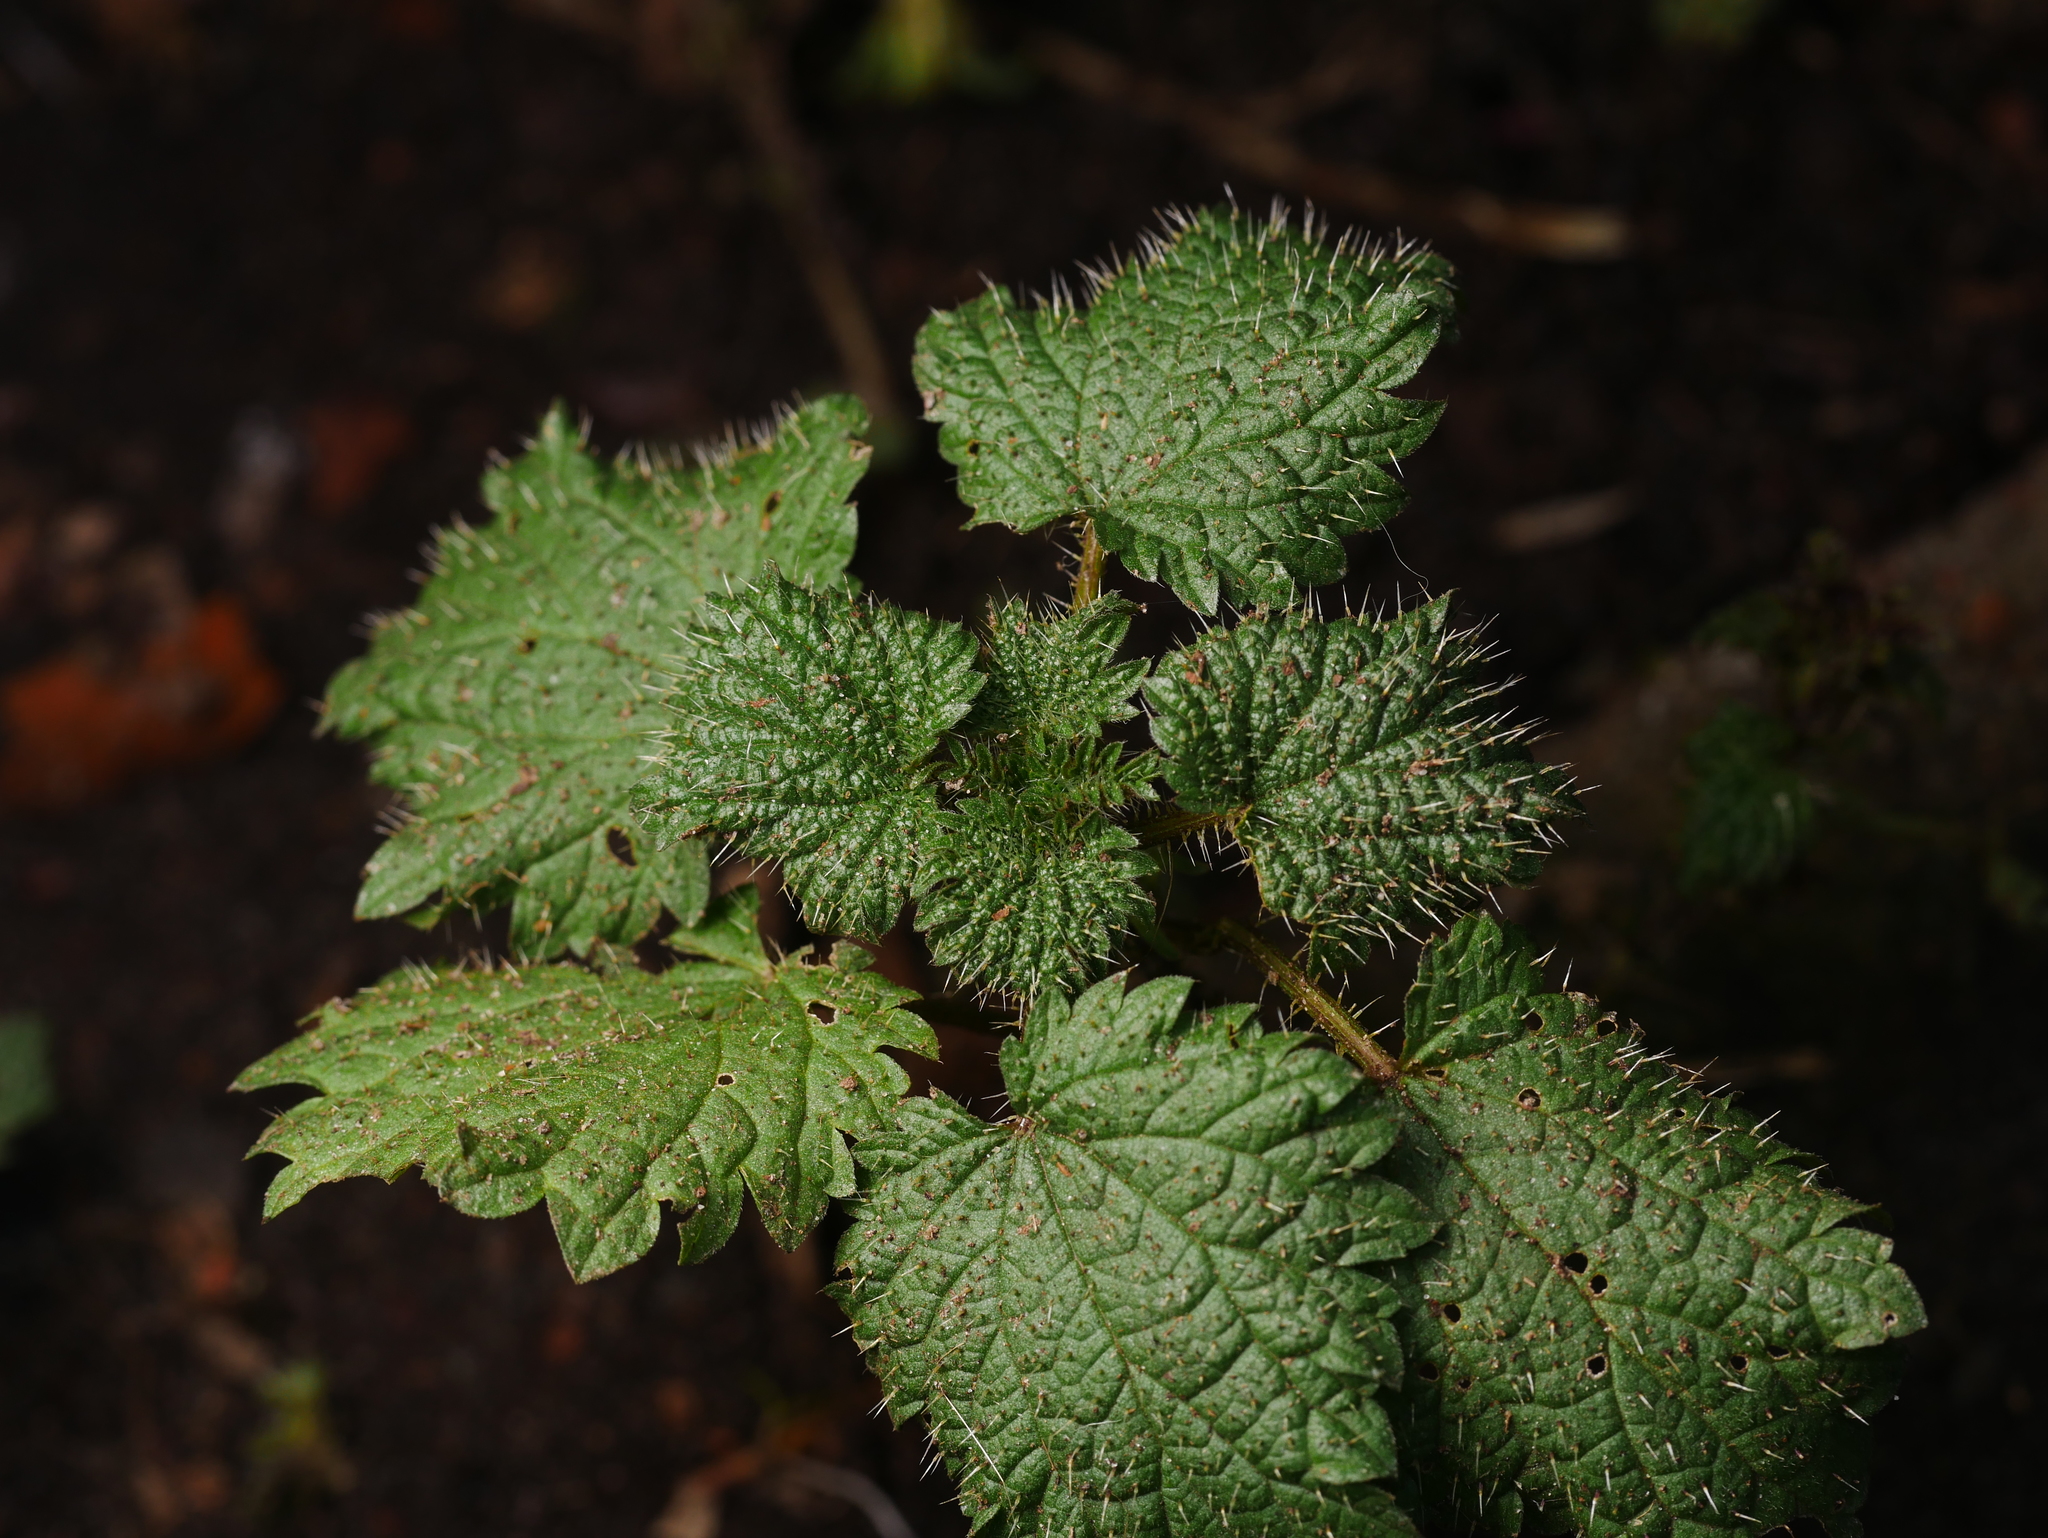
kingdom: Plantae
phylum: Tracheophyta
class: Magnoliopsida
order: Rosales
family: Urticaceae
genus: Urtica
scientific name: Urtica dioica
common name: Common nettle
